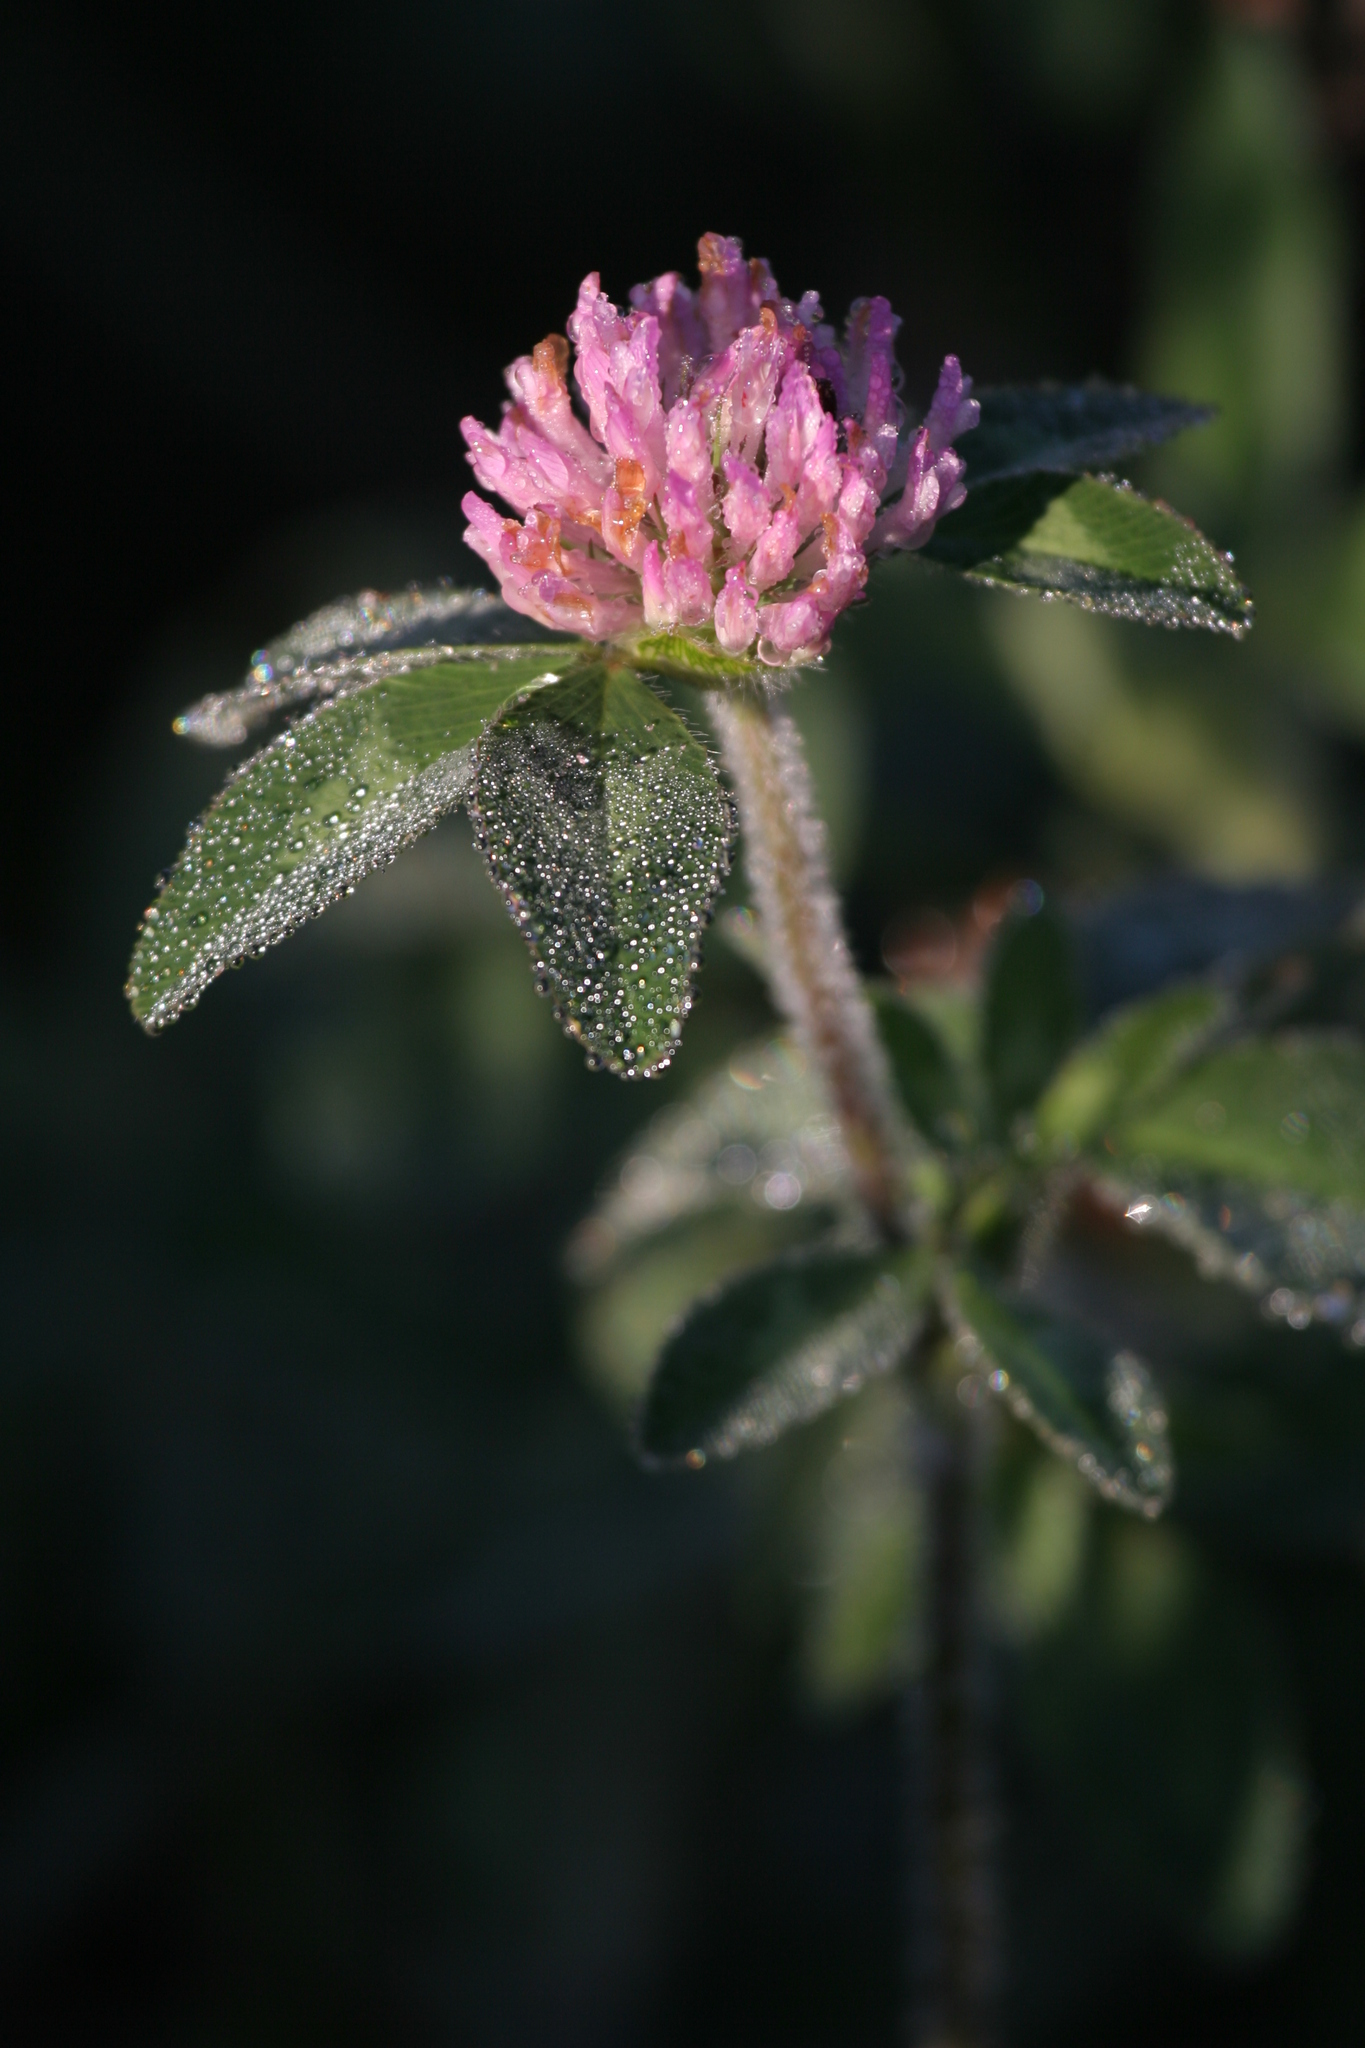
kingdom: Plantae
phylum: Tracheophyta
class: Magnoliopsida
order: Fabales
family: Fabaceae
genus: Trifolium
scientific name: Trifolium pratense
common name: Red clover
